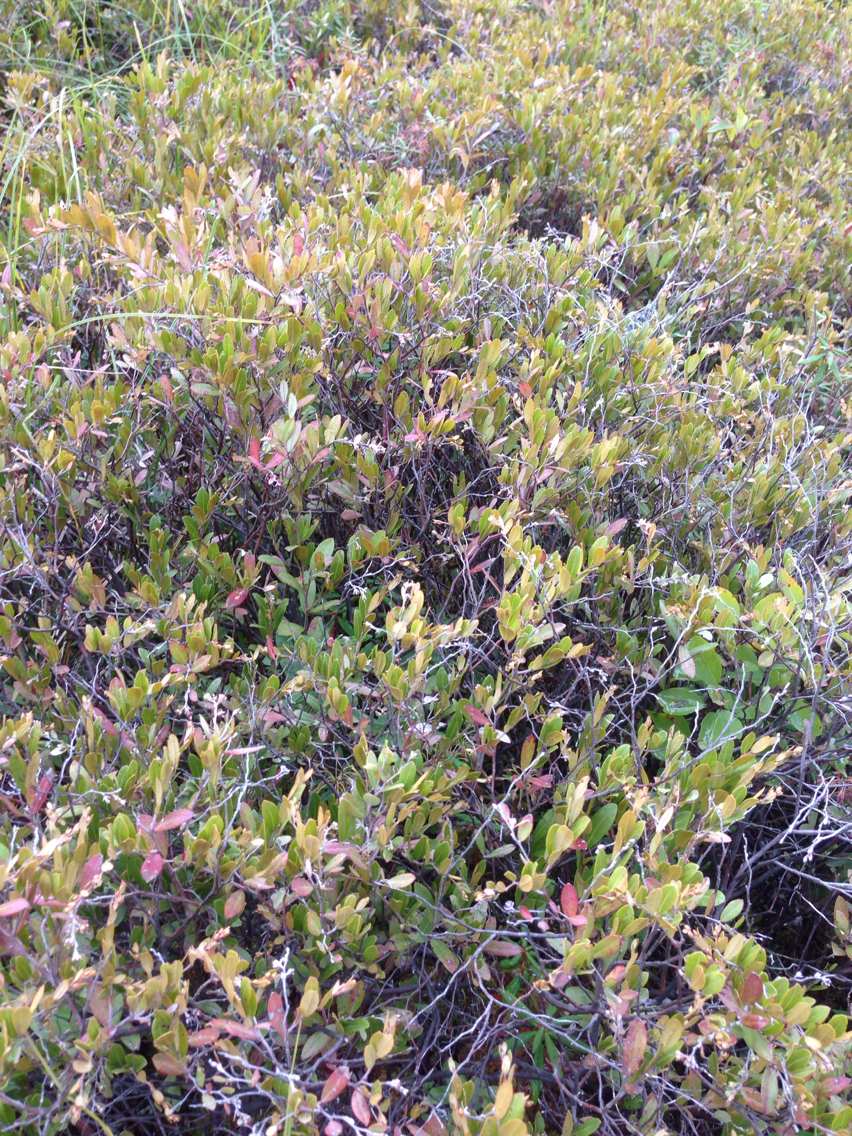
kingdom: Plantae
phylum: Tracheophyta
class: Magnoliopsida
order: Ericales
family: Ericaceae
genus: Chamaedaphne
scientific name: Chamaedaphne calyculata
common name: Leatherleaf
